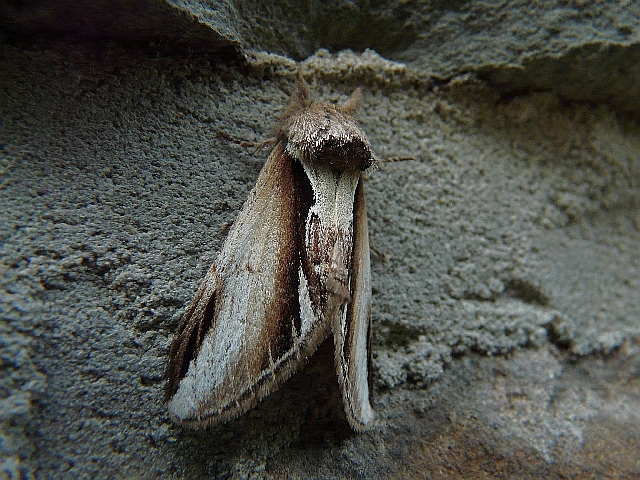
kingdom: Animalia
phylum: Arthropoda
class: Insecta
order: Lepidoptera
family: Notodontidae
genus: Pheosia
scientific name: Pheosia gnoma
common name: Lesser swallow prominent
